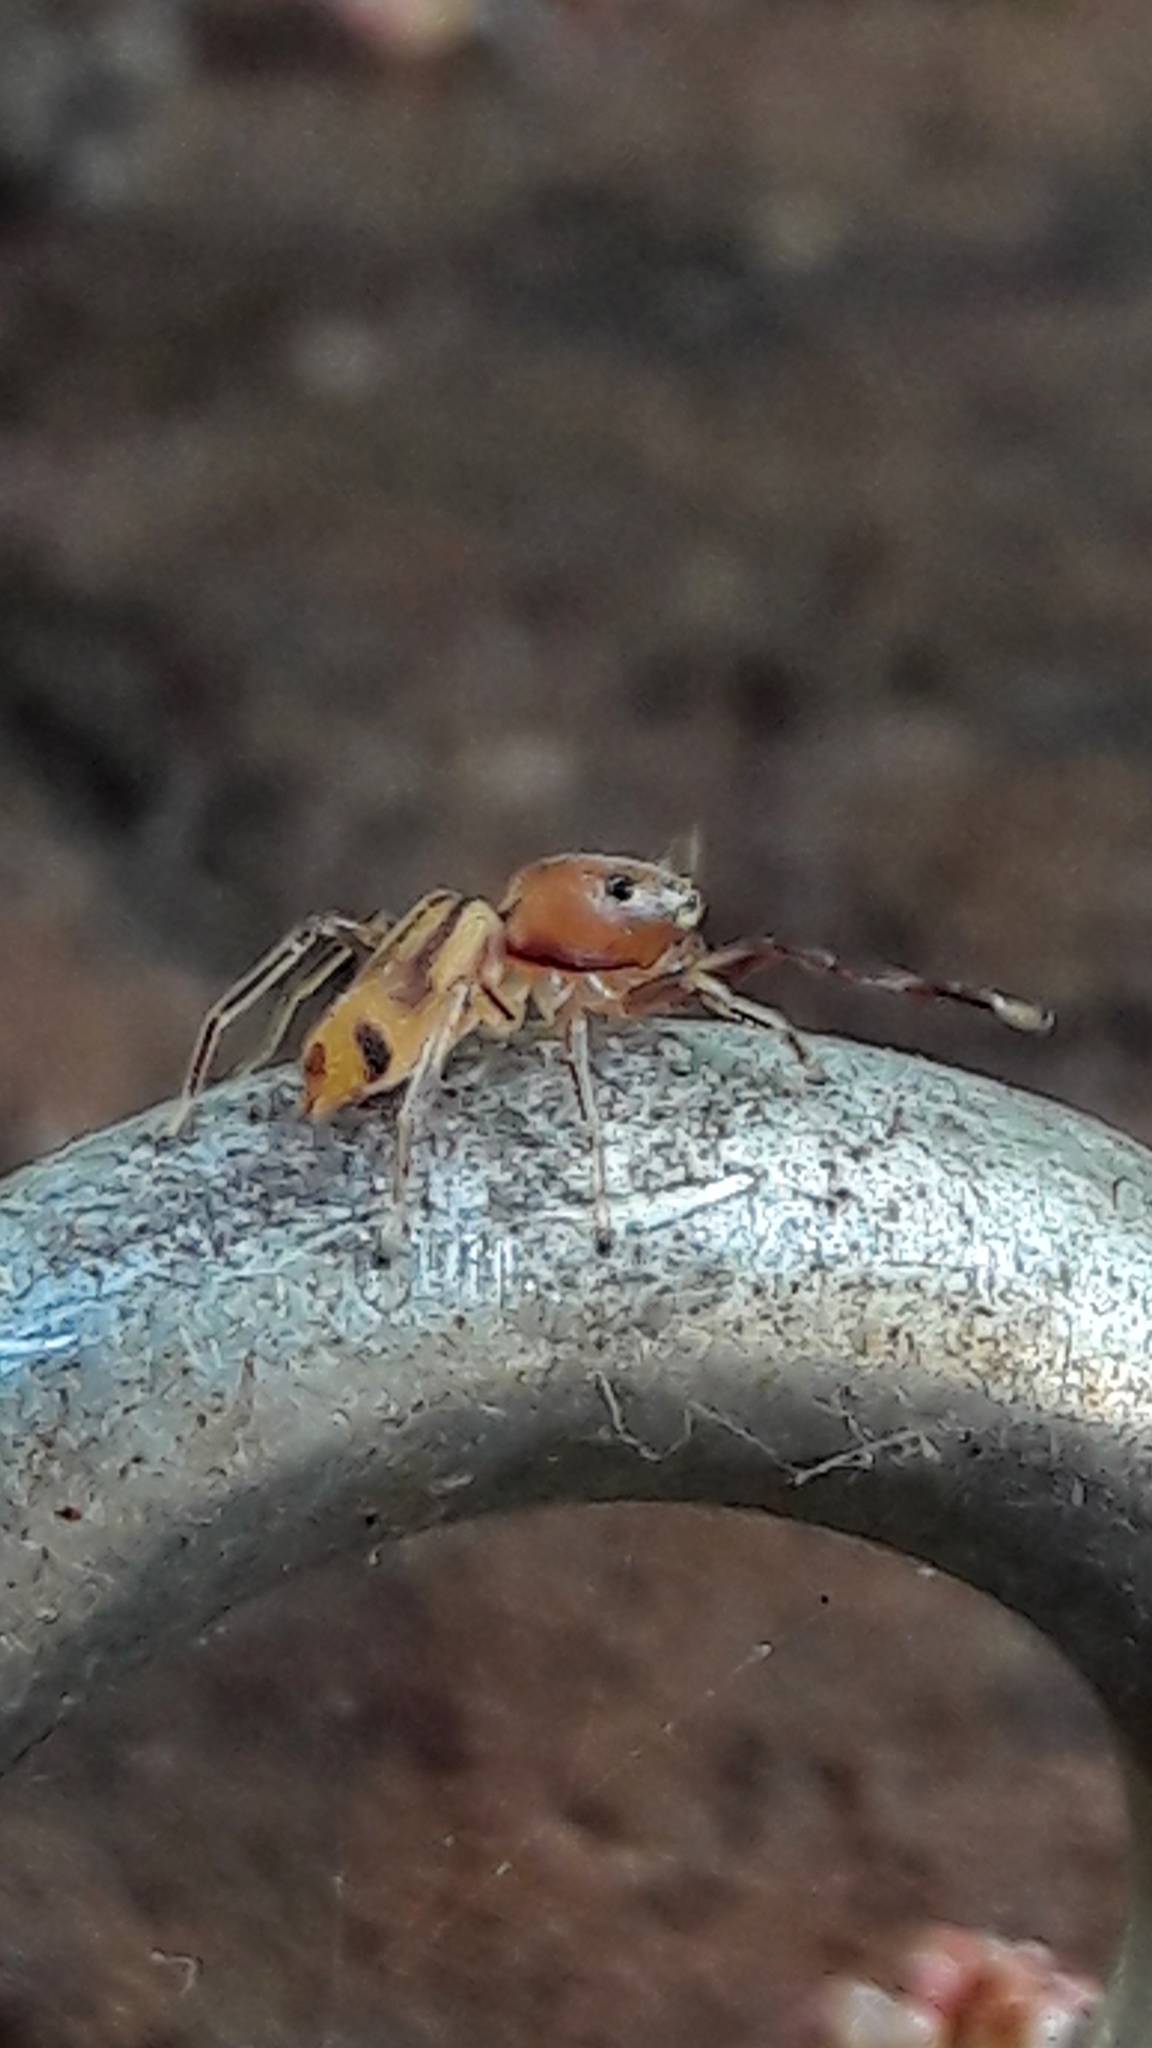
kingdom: Animalia
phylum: Arthropoda
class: Arachnida
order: Araneae
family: Salticidae
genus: Gypogyna
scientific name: Gypogyna forceps
